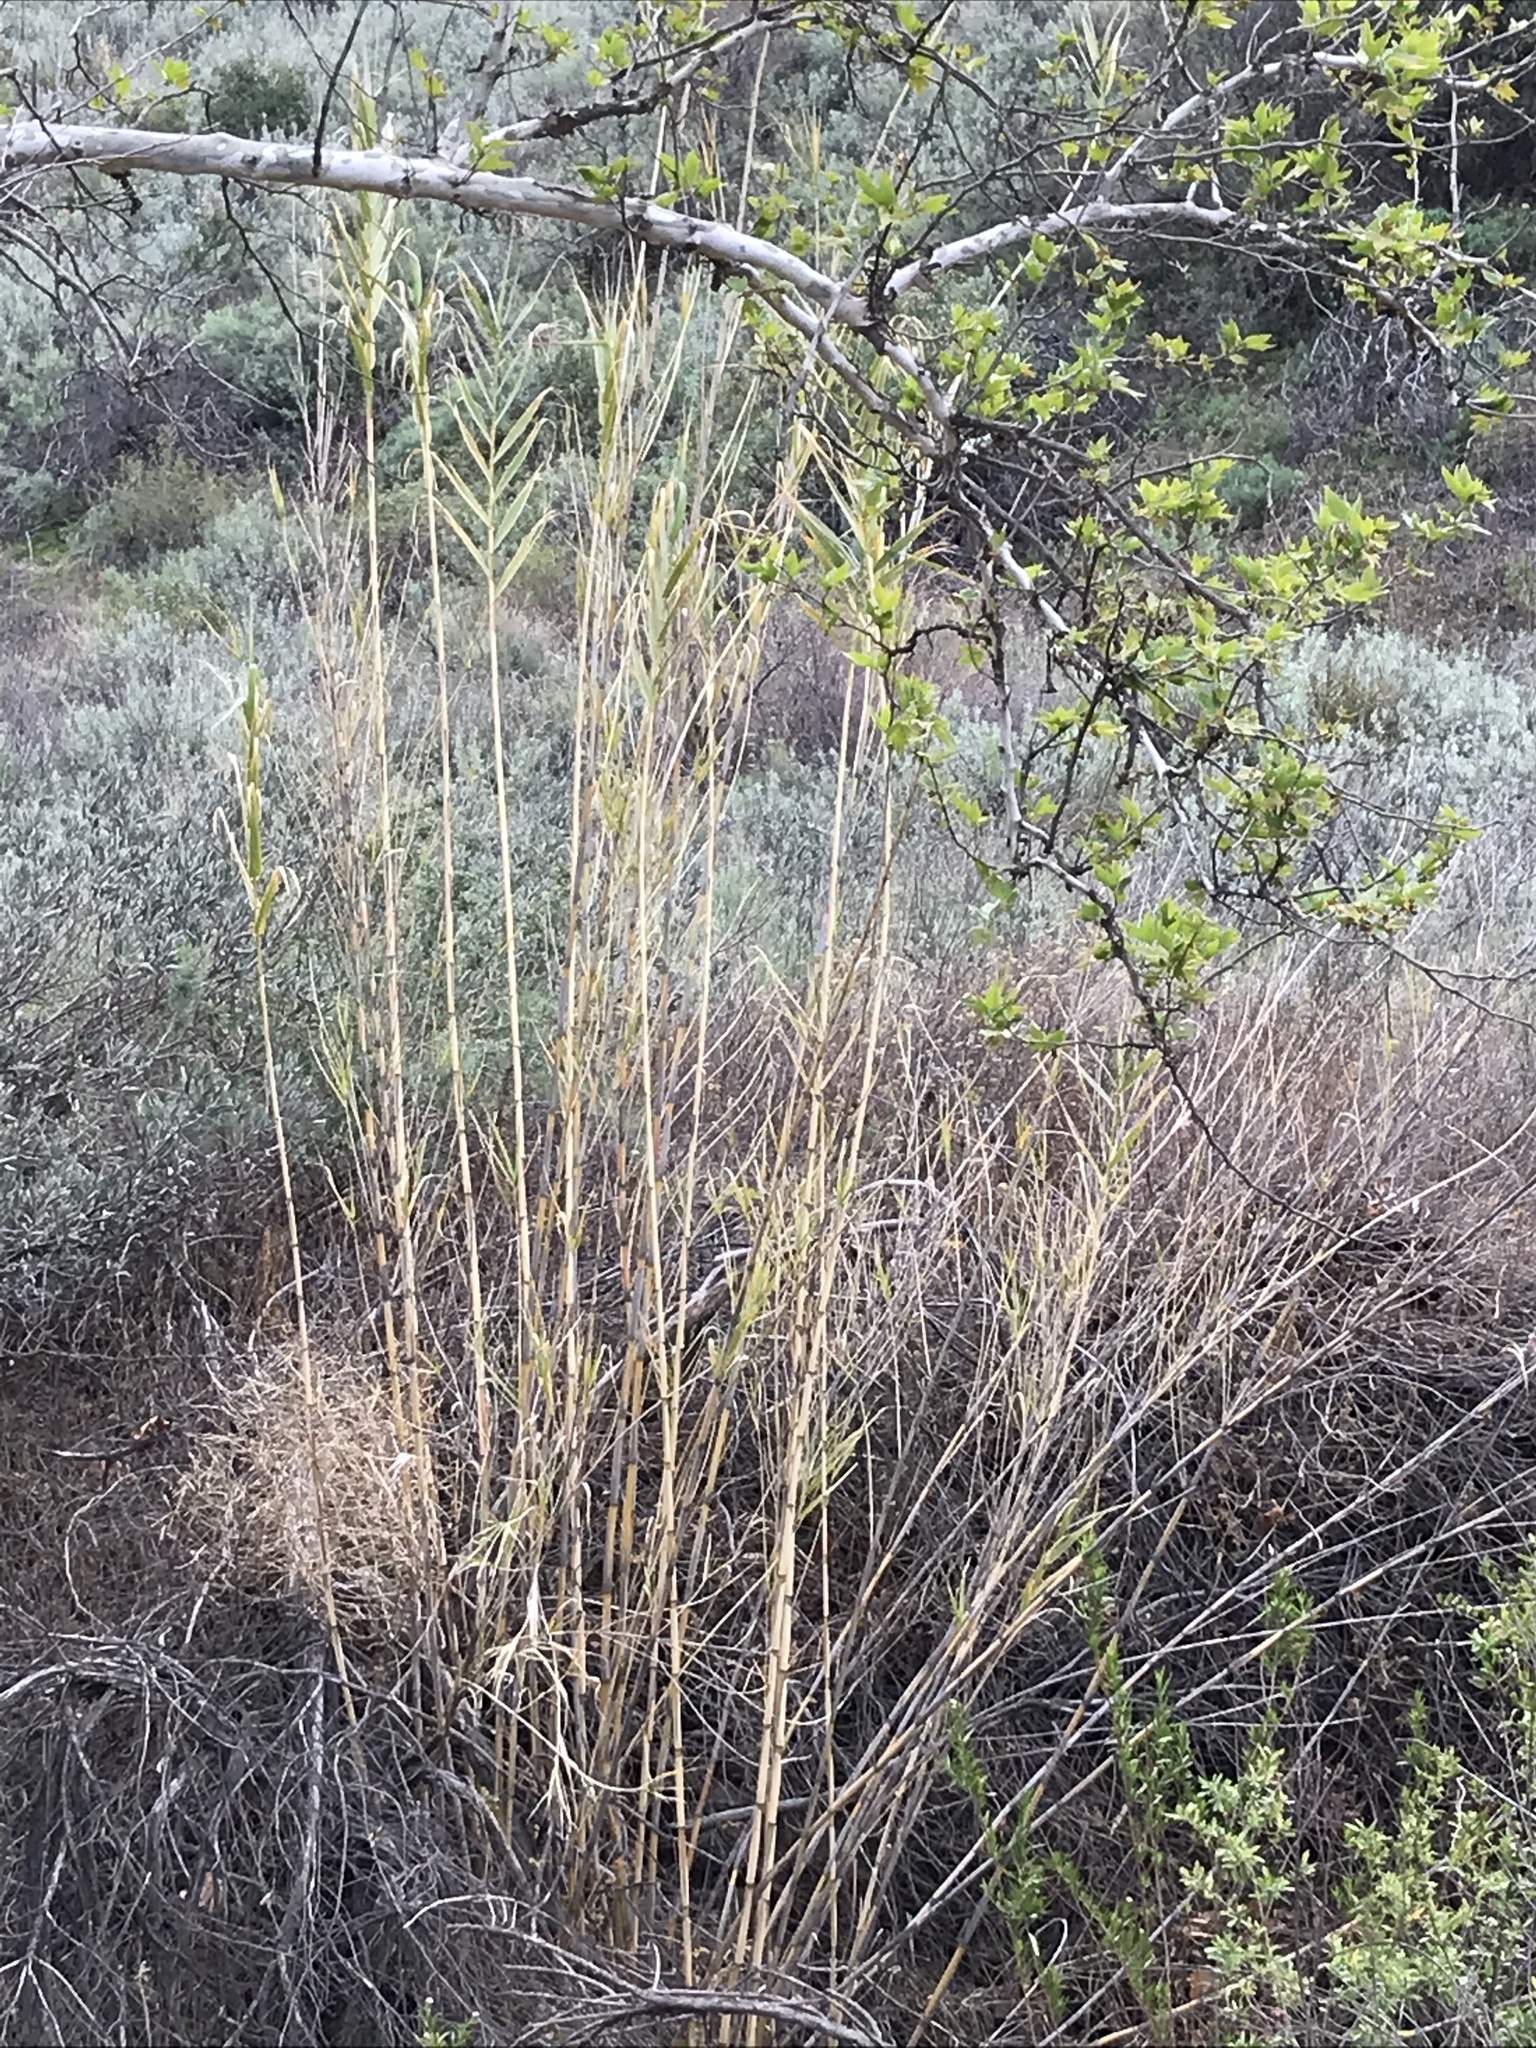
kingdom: Plantae
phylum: Tracheophyta
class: Liliopsida
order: Poales
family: Poaceae
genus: Arundo
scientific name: Arundo donax
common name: Giant reed
